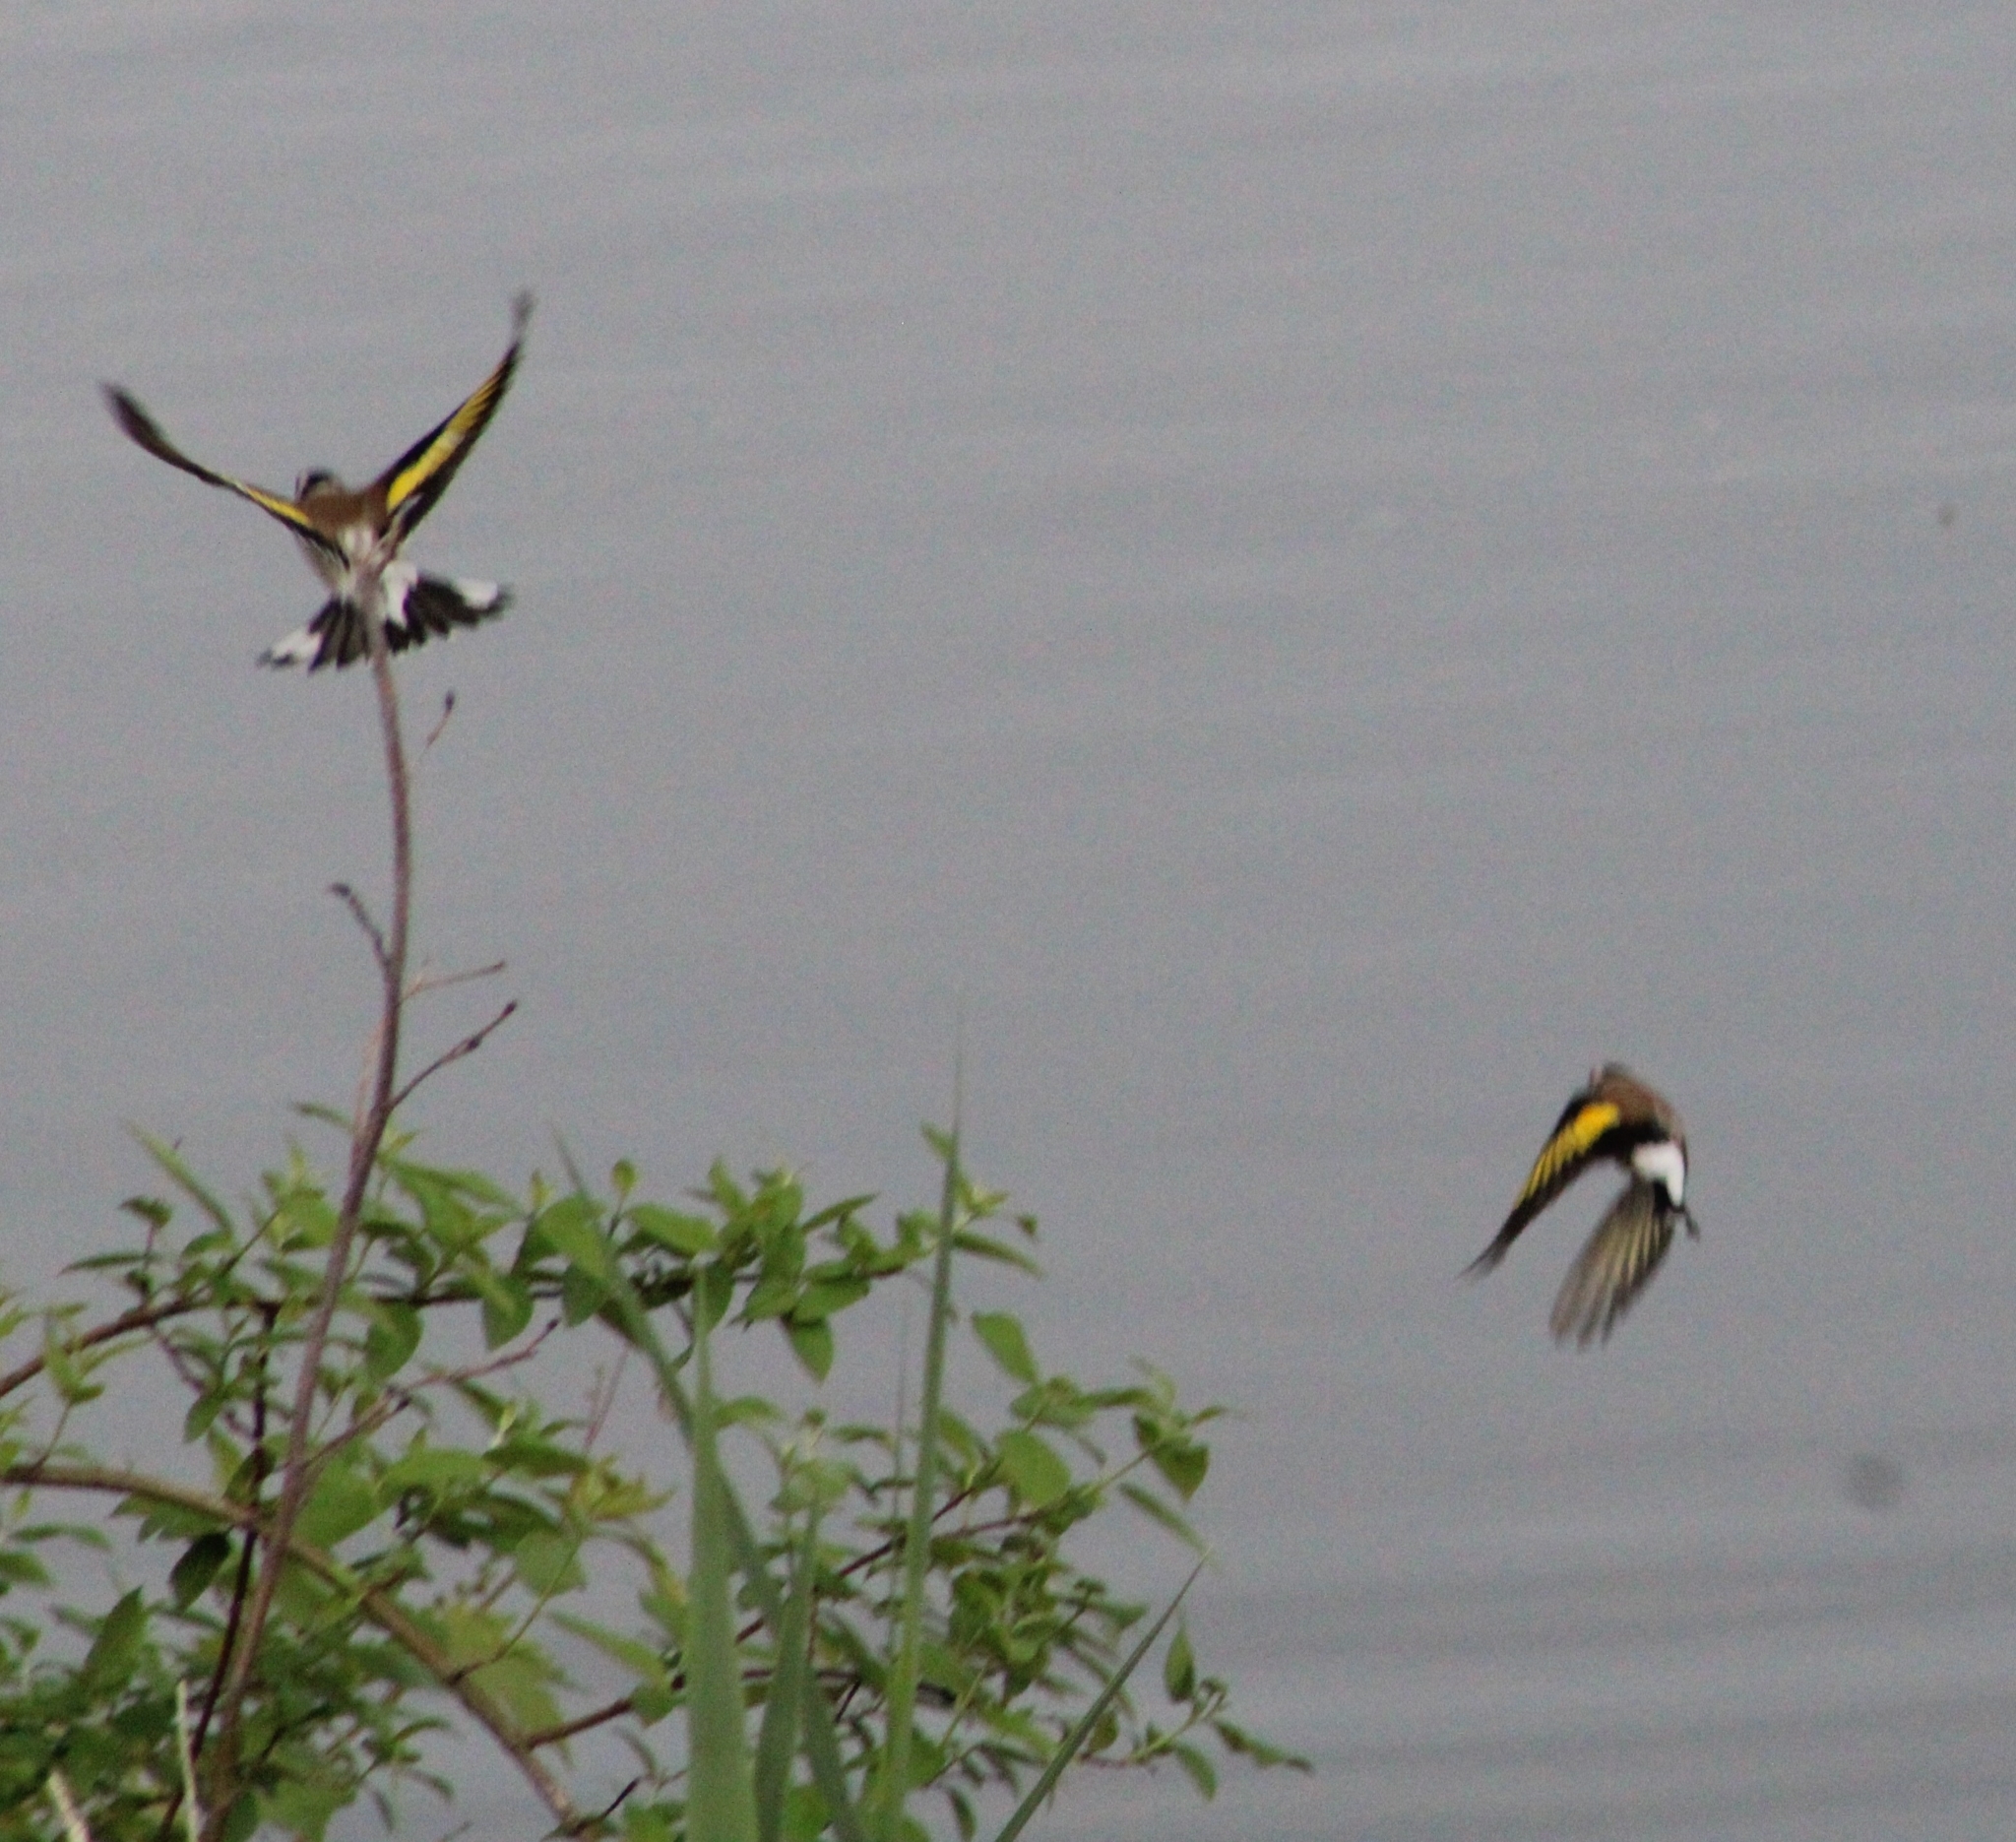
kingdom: Animalia
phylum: Chordata
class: Aves
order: Passeriformes
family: Fringillidae
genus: Carduelis
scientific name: Carduelis carduelis
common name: European goldfinch
